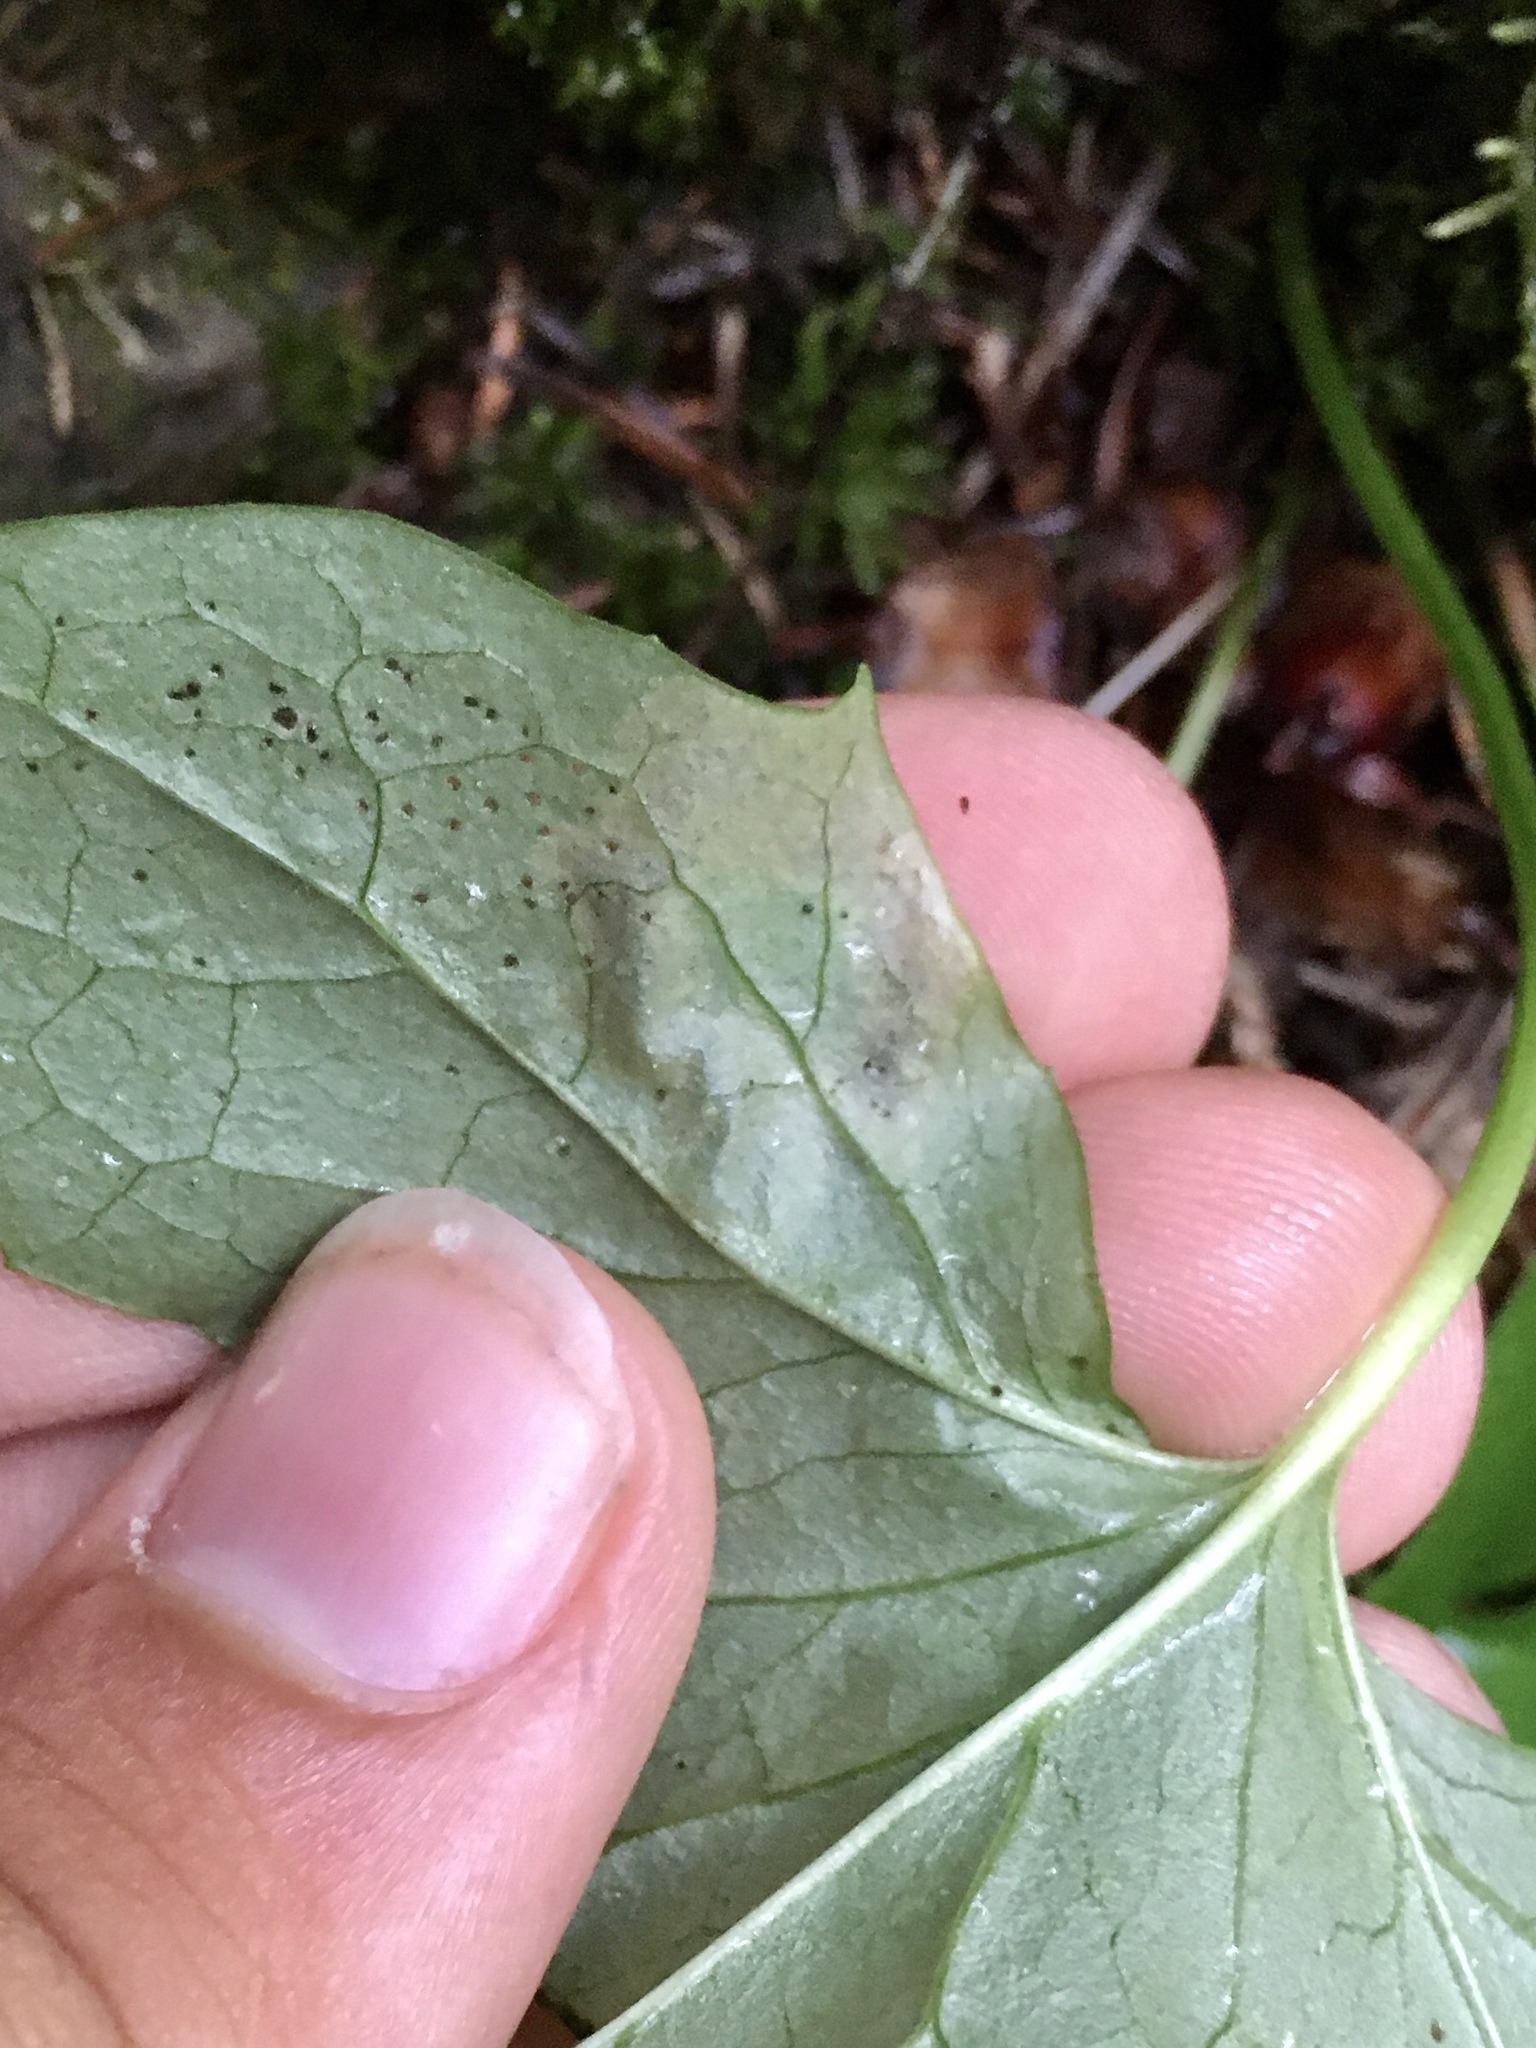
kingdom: Animalia
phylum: Arthropoda
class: Insecta
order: Diptera
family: Agromyzidae
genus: Liriomyza
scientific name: Liriomyza orilliensis
